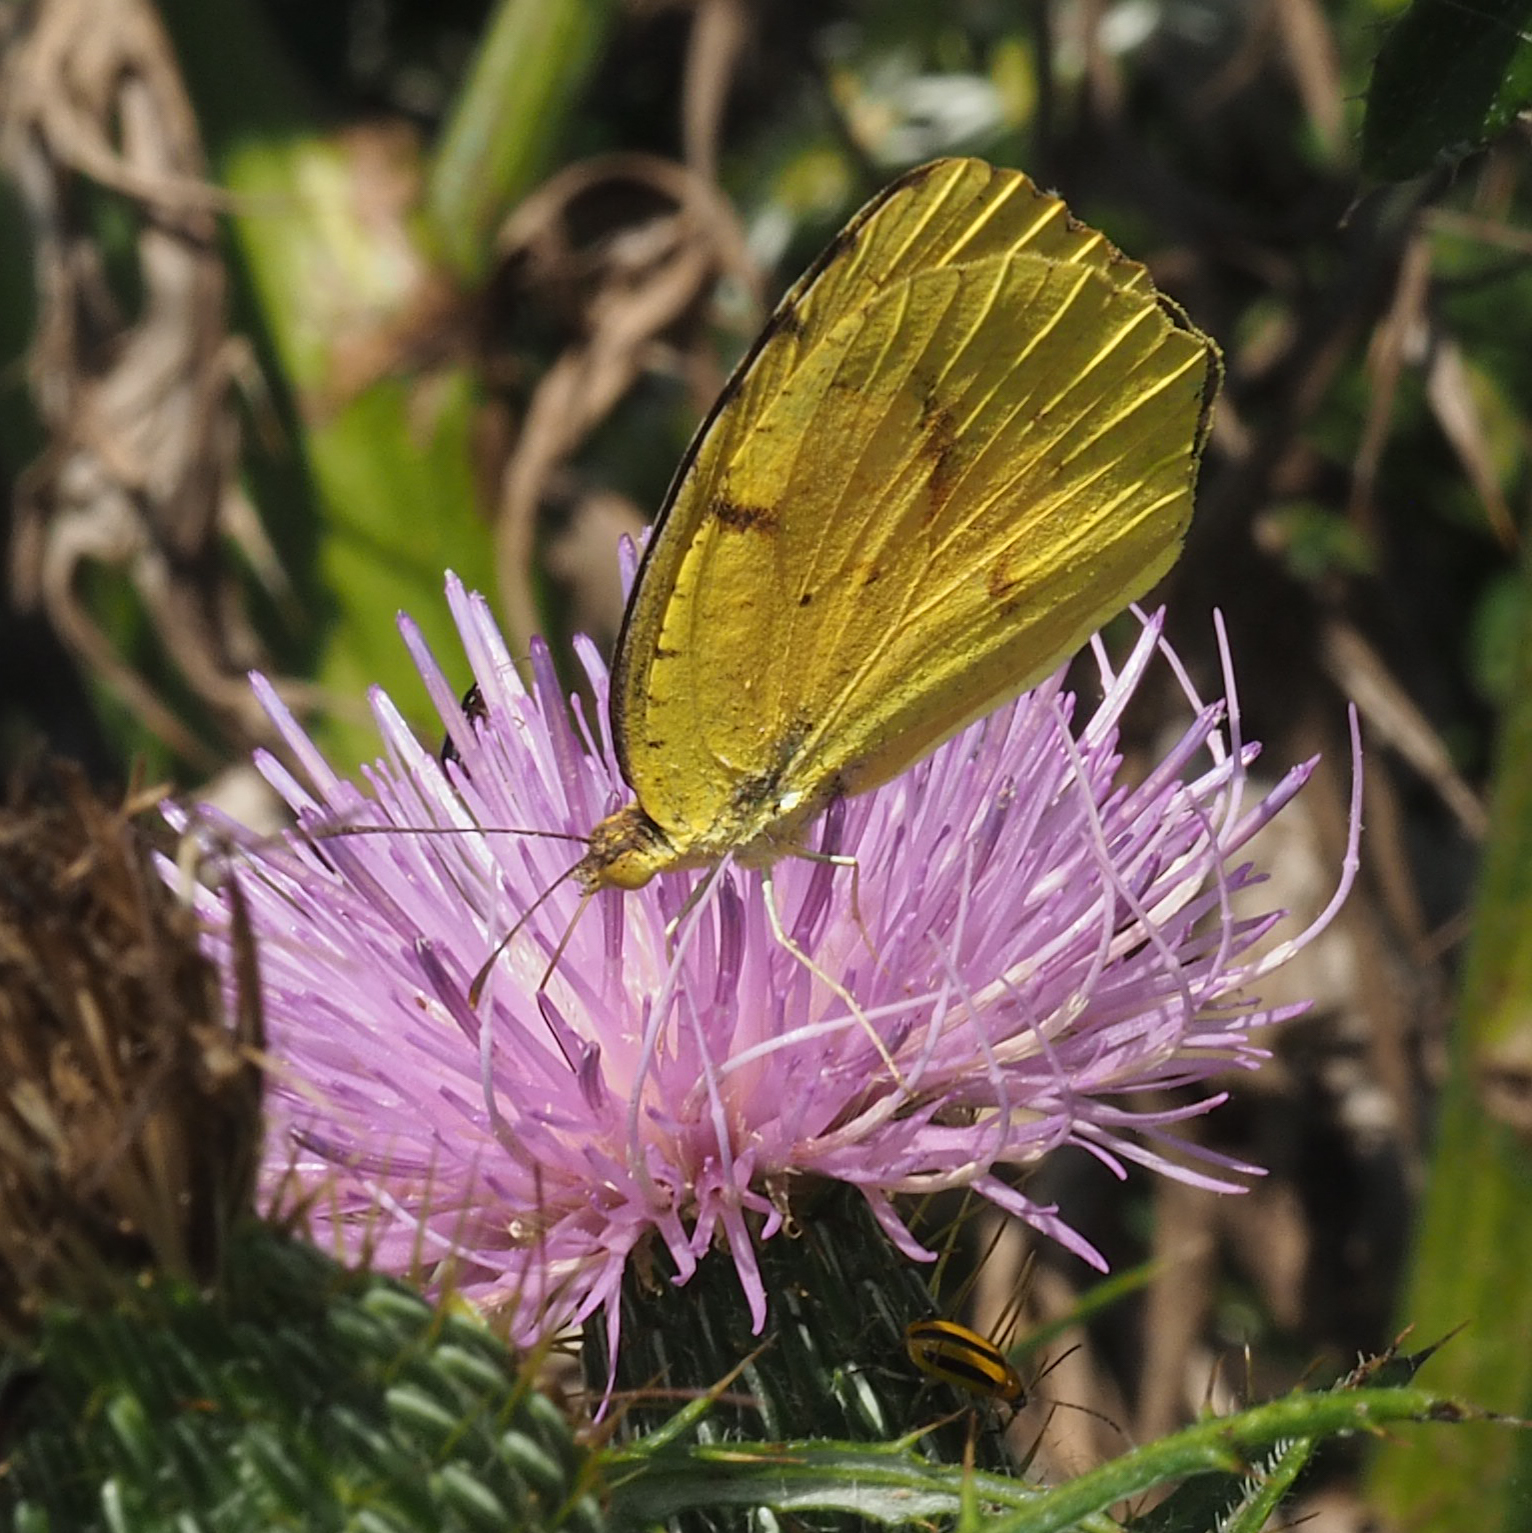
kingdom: Animalia
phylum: Arthropoda
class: Insecta
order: Lepidoptera
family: Pieridae
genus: Abaeis
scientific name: Abaeis nicippe
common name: Sleepy orange
